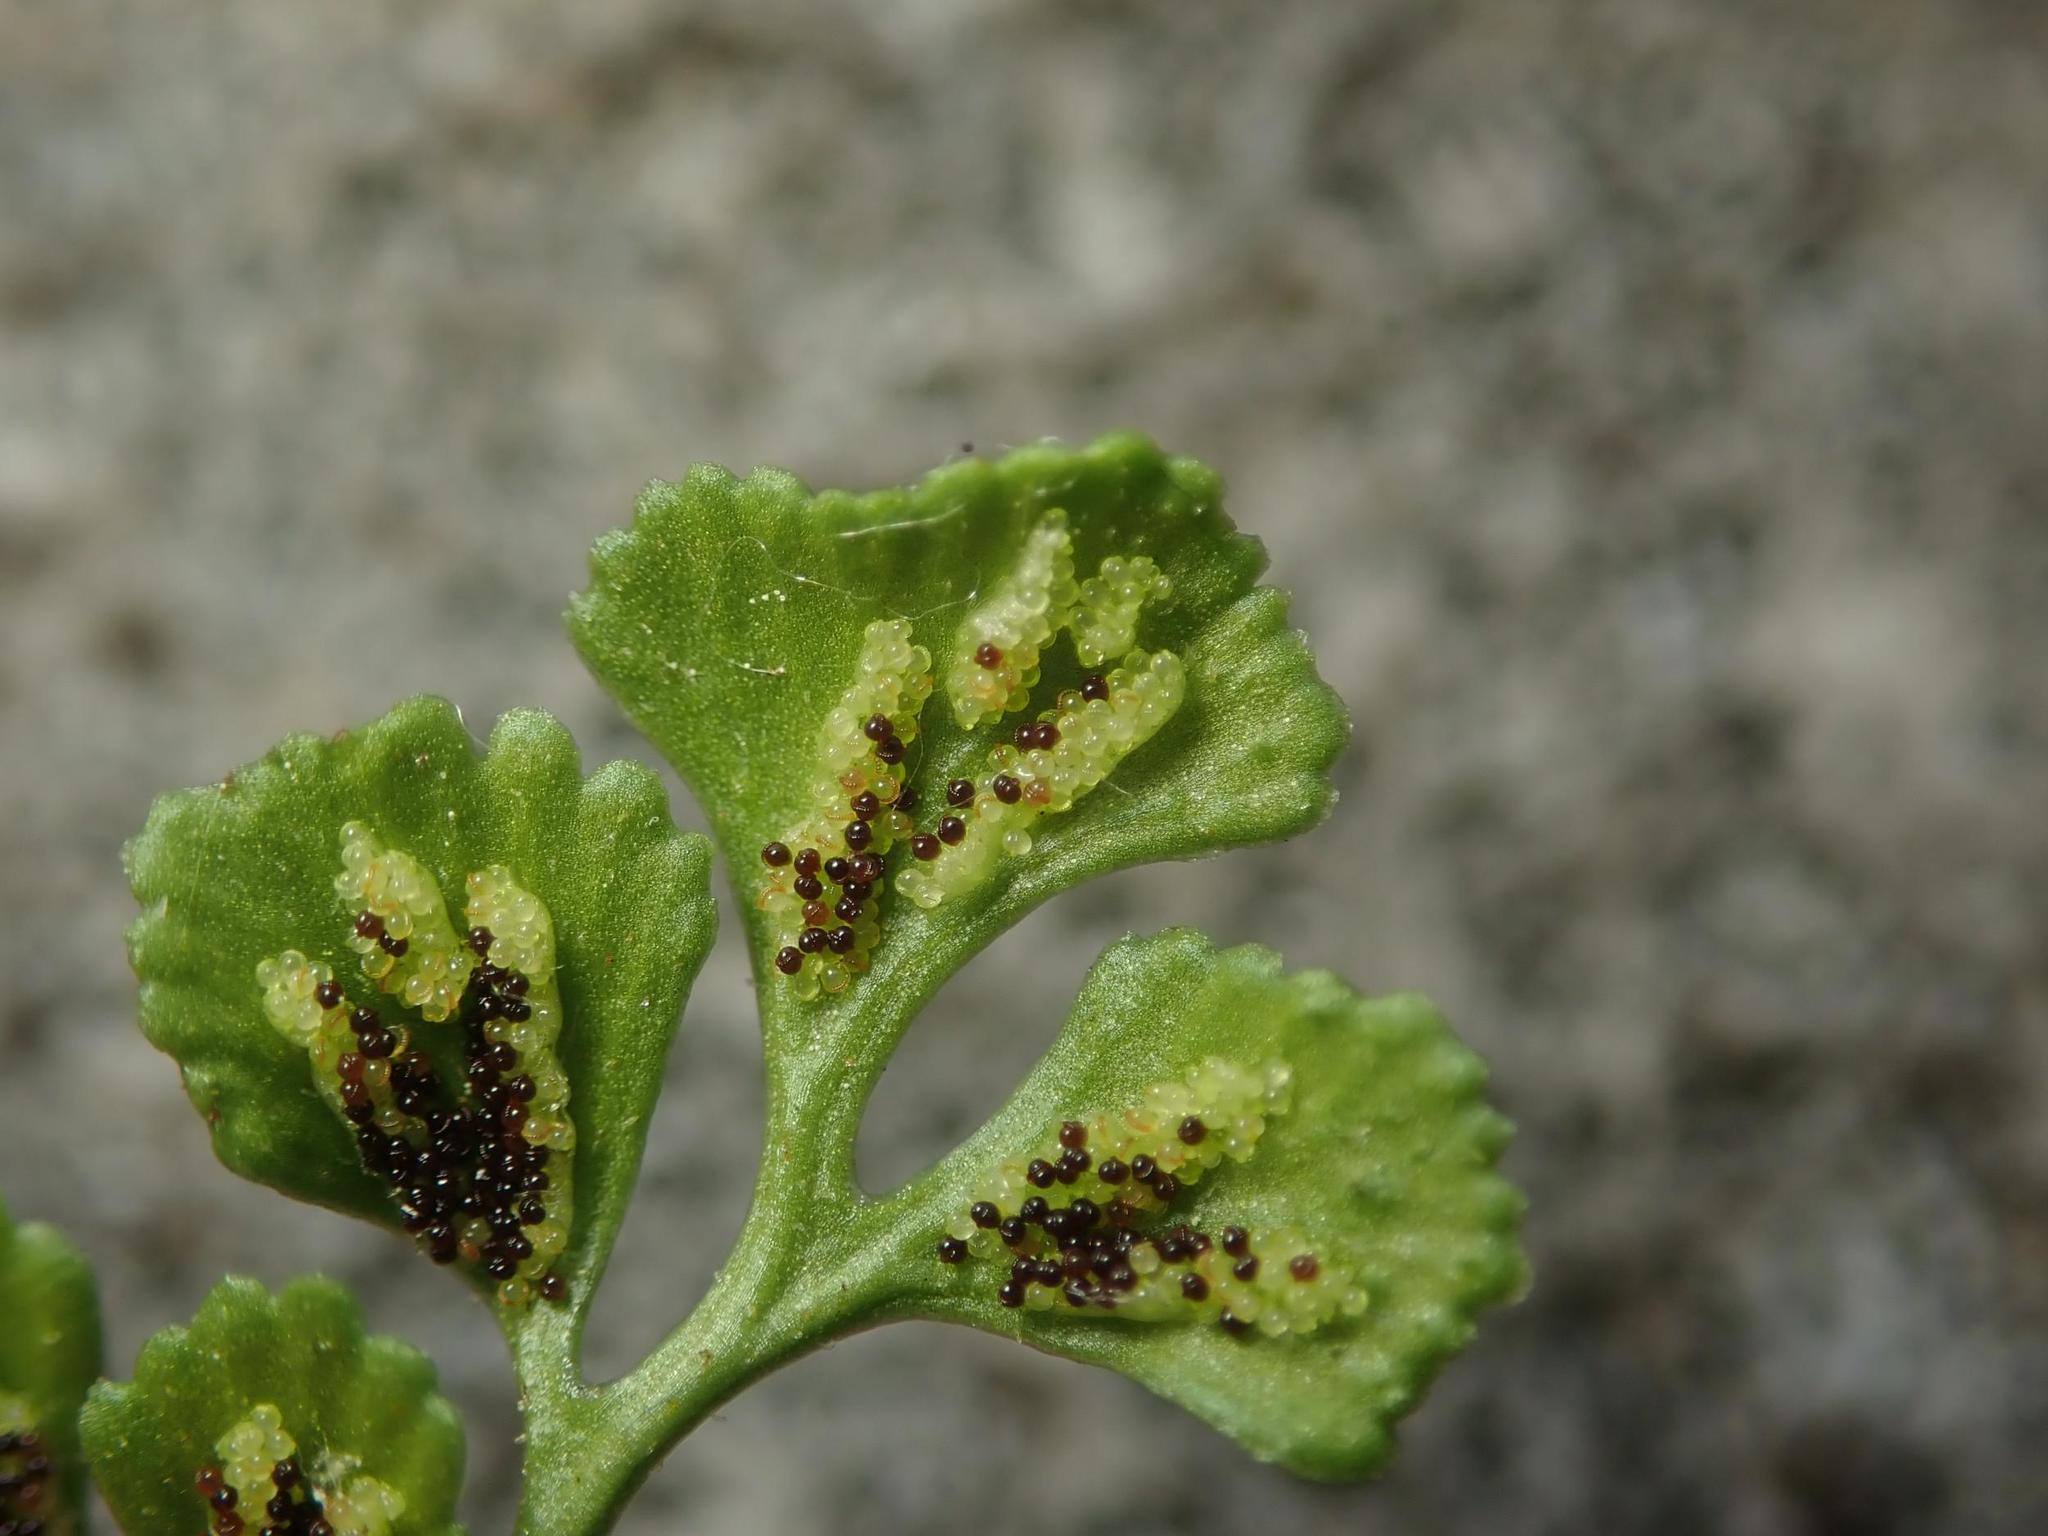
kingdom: Plantae
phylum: Tracheophyta
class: Polypodiopsida
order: Polypodiales
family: Aspleniaceae
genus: Asplenium
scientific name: Asplenium ruta-muraria
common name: Wall-rue
